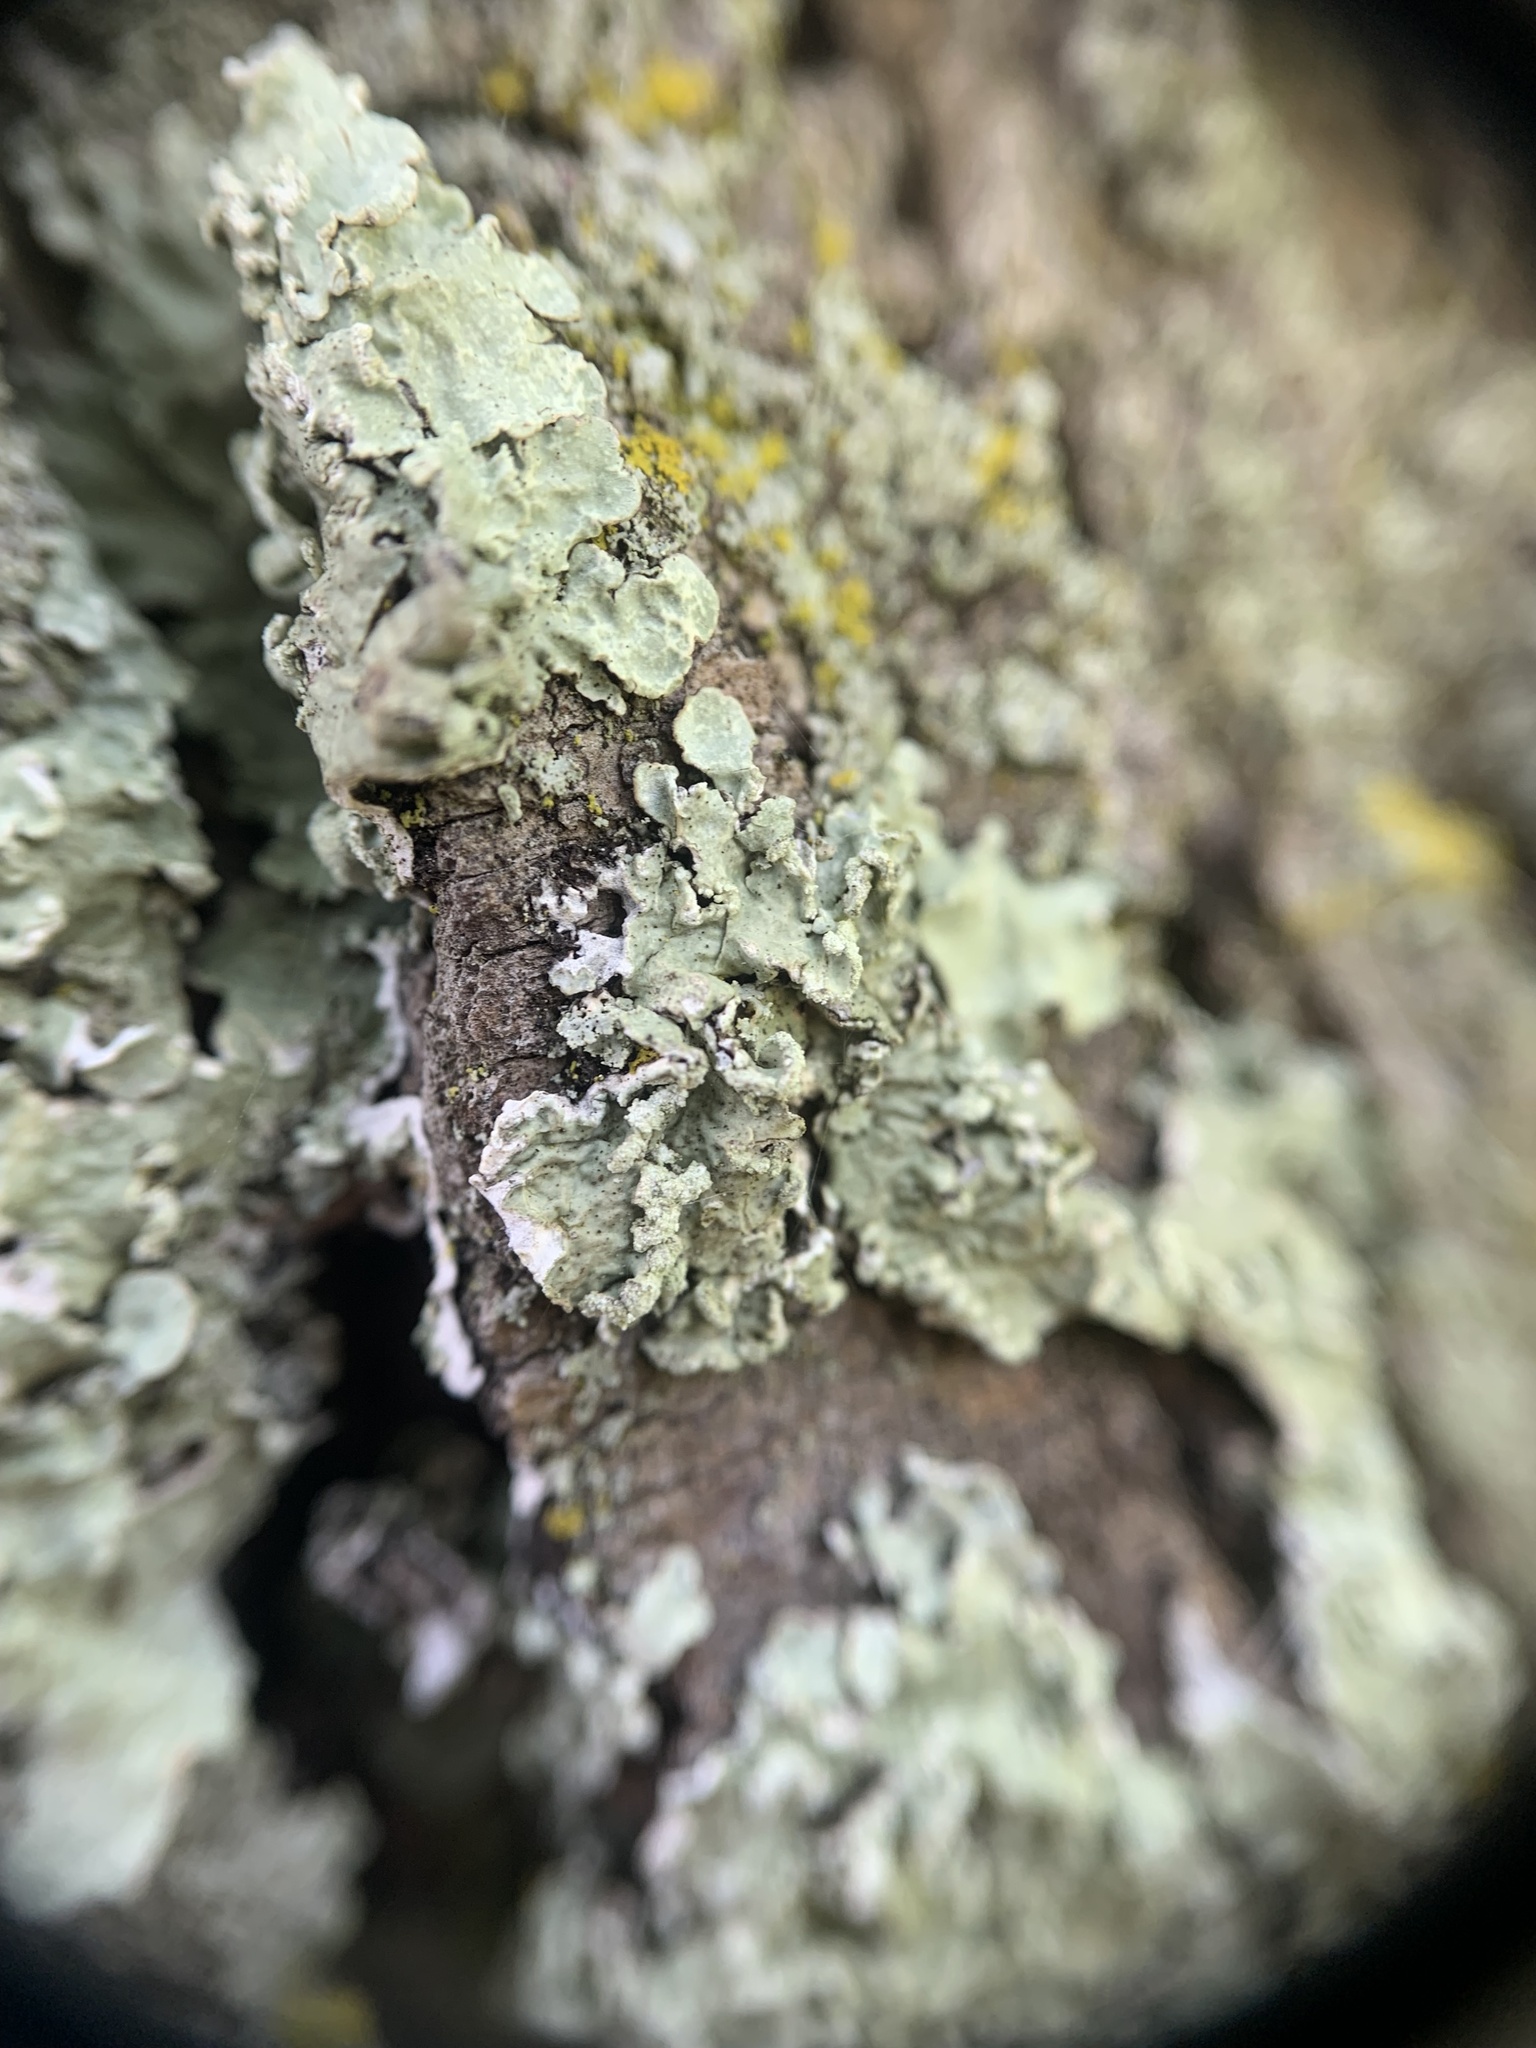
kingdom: Fungi
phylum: Ascomycota
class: Lecanoromycetes
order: Lecanorales
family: Parmeliaceae
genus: Flavopunctelia
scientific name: Flavopunctelia soredica
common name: Powder-edged speckled greenshield
